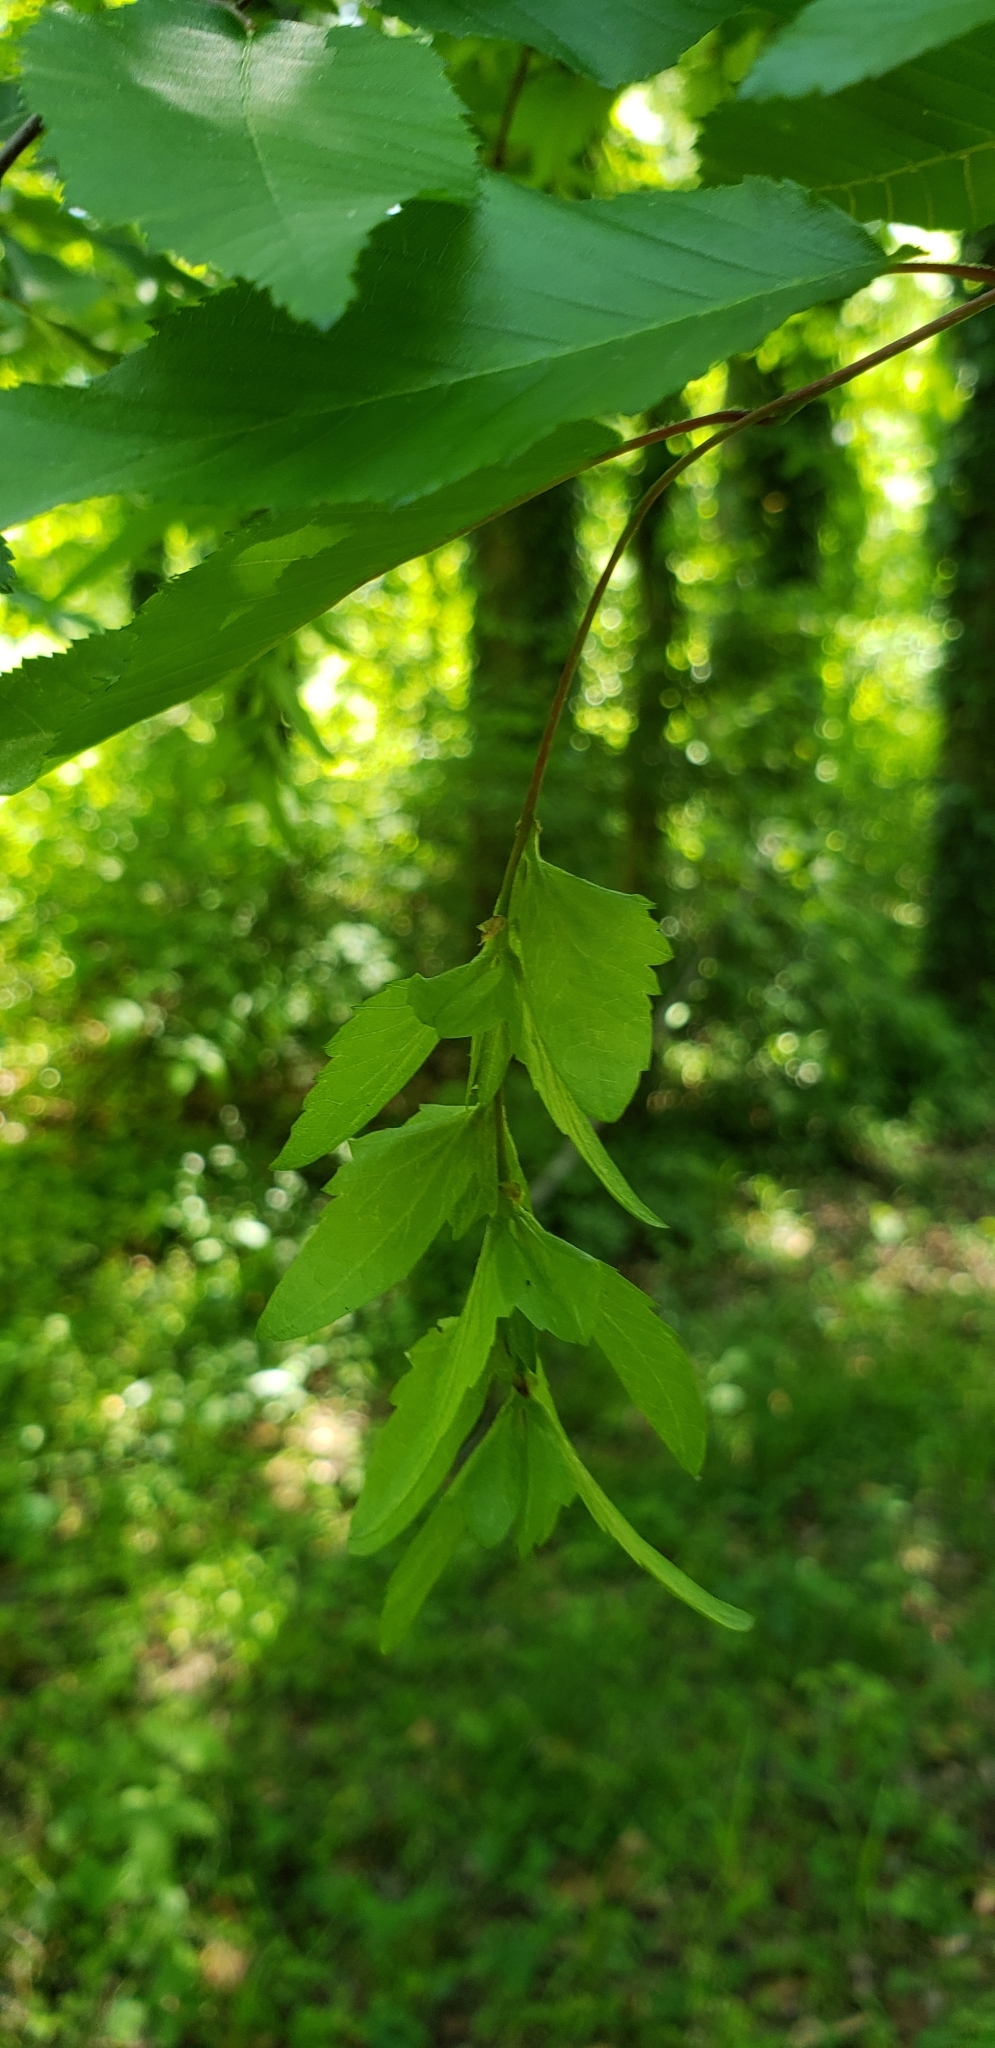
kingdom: Plantae
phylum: Tracheophyta
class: Magnoliopsida
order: Fagales
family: Betulaceae
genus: Carpinus
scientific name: Carpinus caroliniana
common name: American hornbeam
